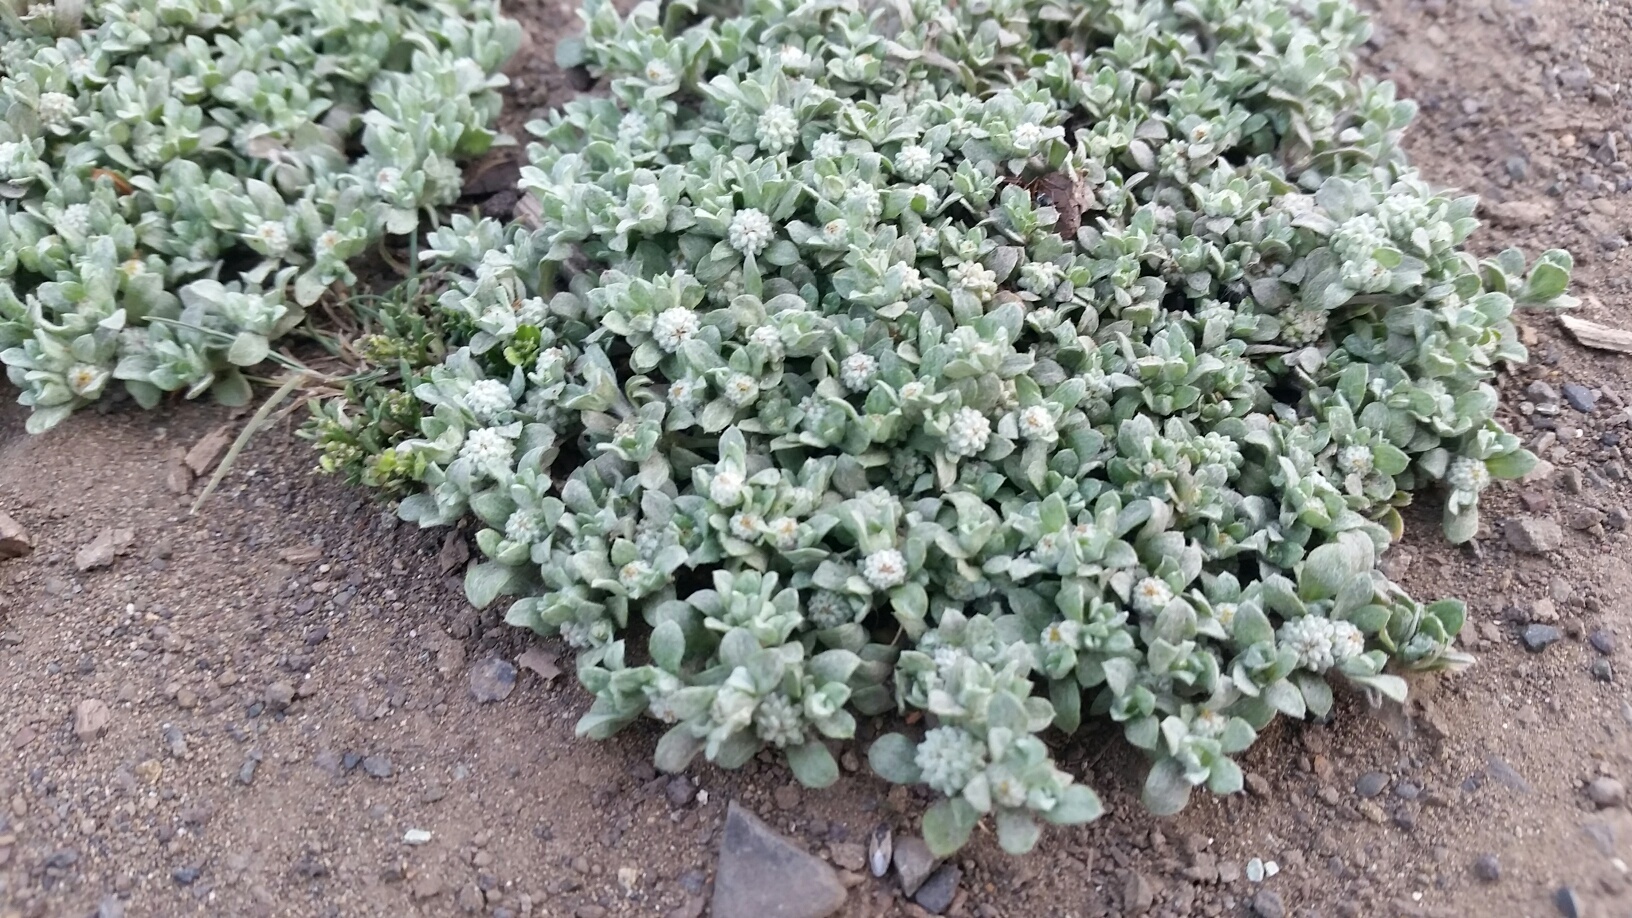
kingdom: Plantae
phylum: Tracheophyta
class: Magnoliopsida
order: Asterales
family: Asteraceae
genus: Psilocarphus
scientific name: Psilocarphus tenellus
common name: Slender woolly-marbles
